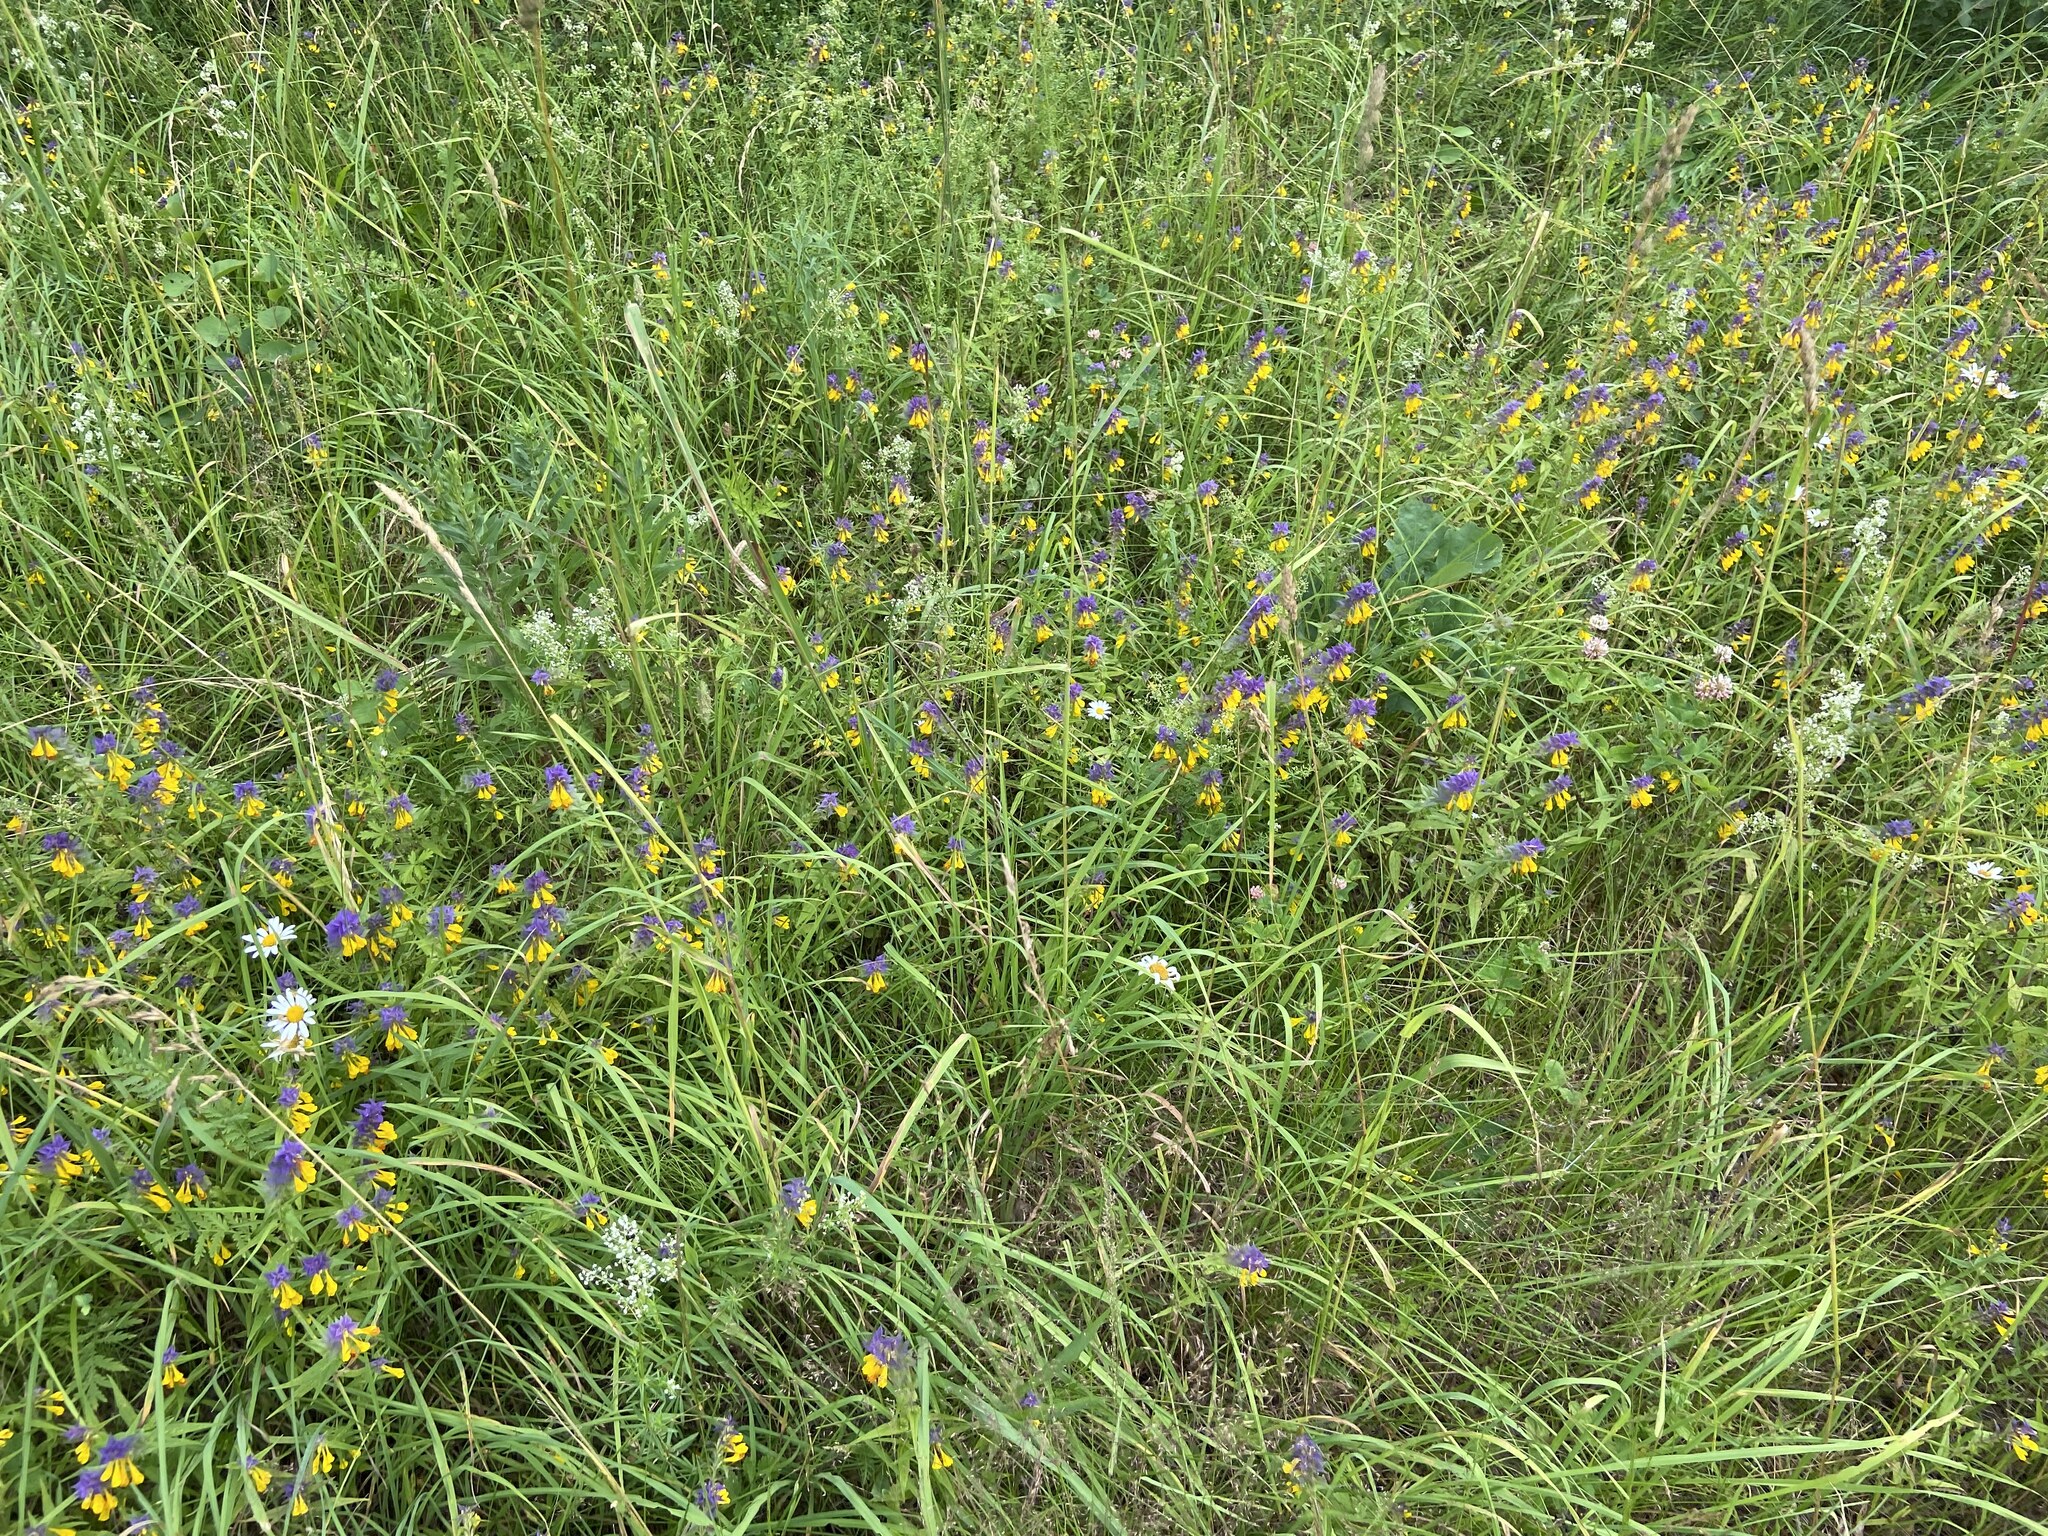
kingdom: Plantae
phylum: Tracheophyta
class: Magnoliopsida
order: Lamiales
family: Orobanchaceae
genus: Melampyrum
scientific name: Melampyrum nemorosum
